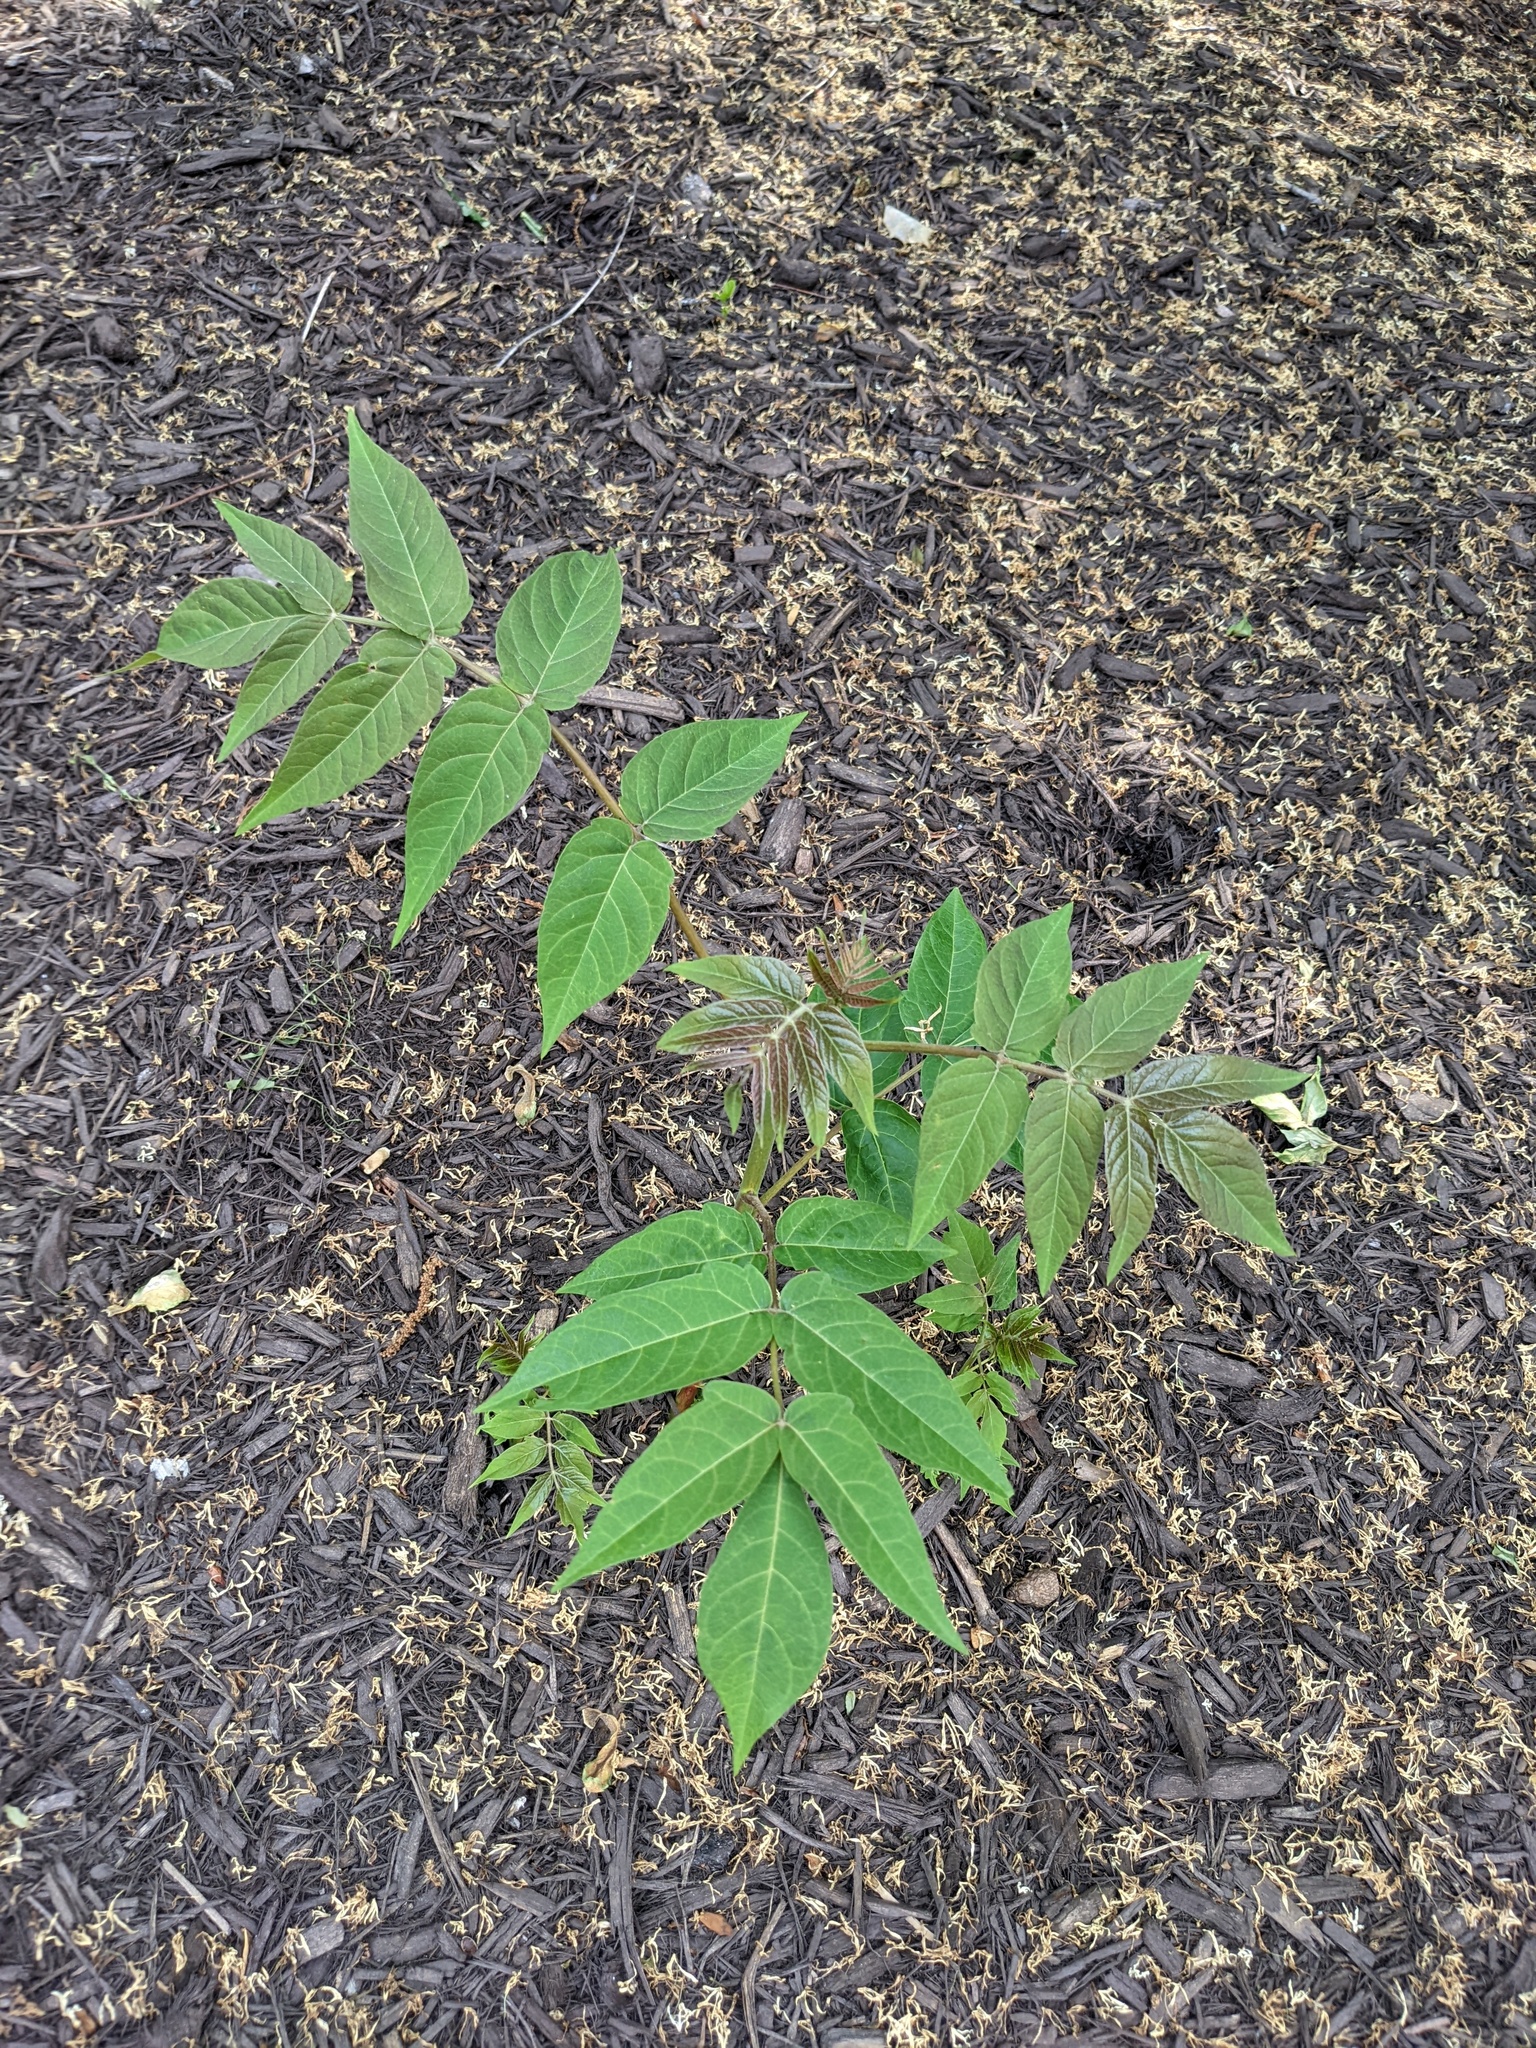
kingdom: Plantae
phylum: Tracheophyta
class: Magnoliopsida
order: Sapindales
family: Simaroubaceae
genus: Ailanthus
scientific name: Ailanthus altissima
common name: Tree-of-heaven
